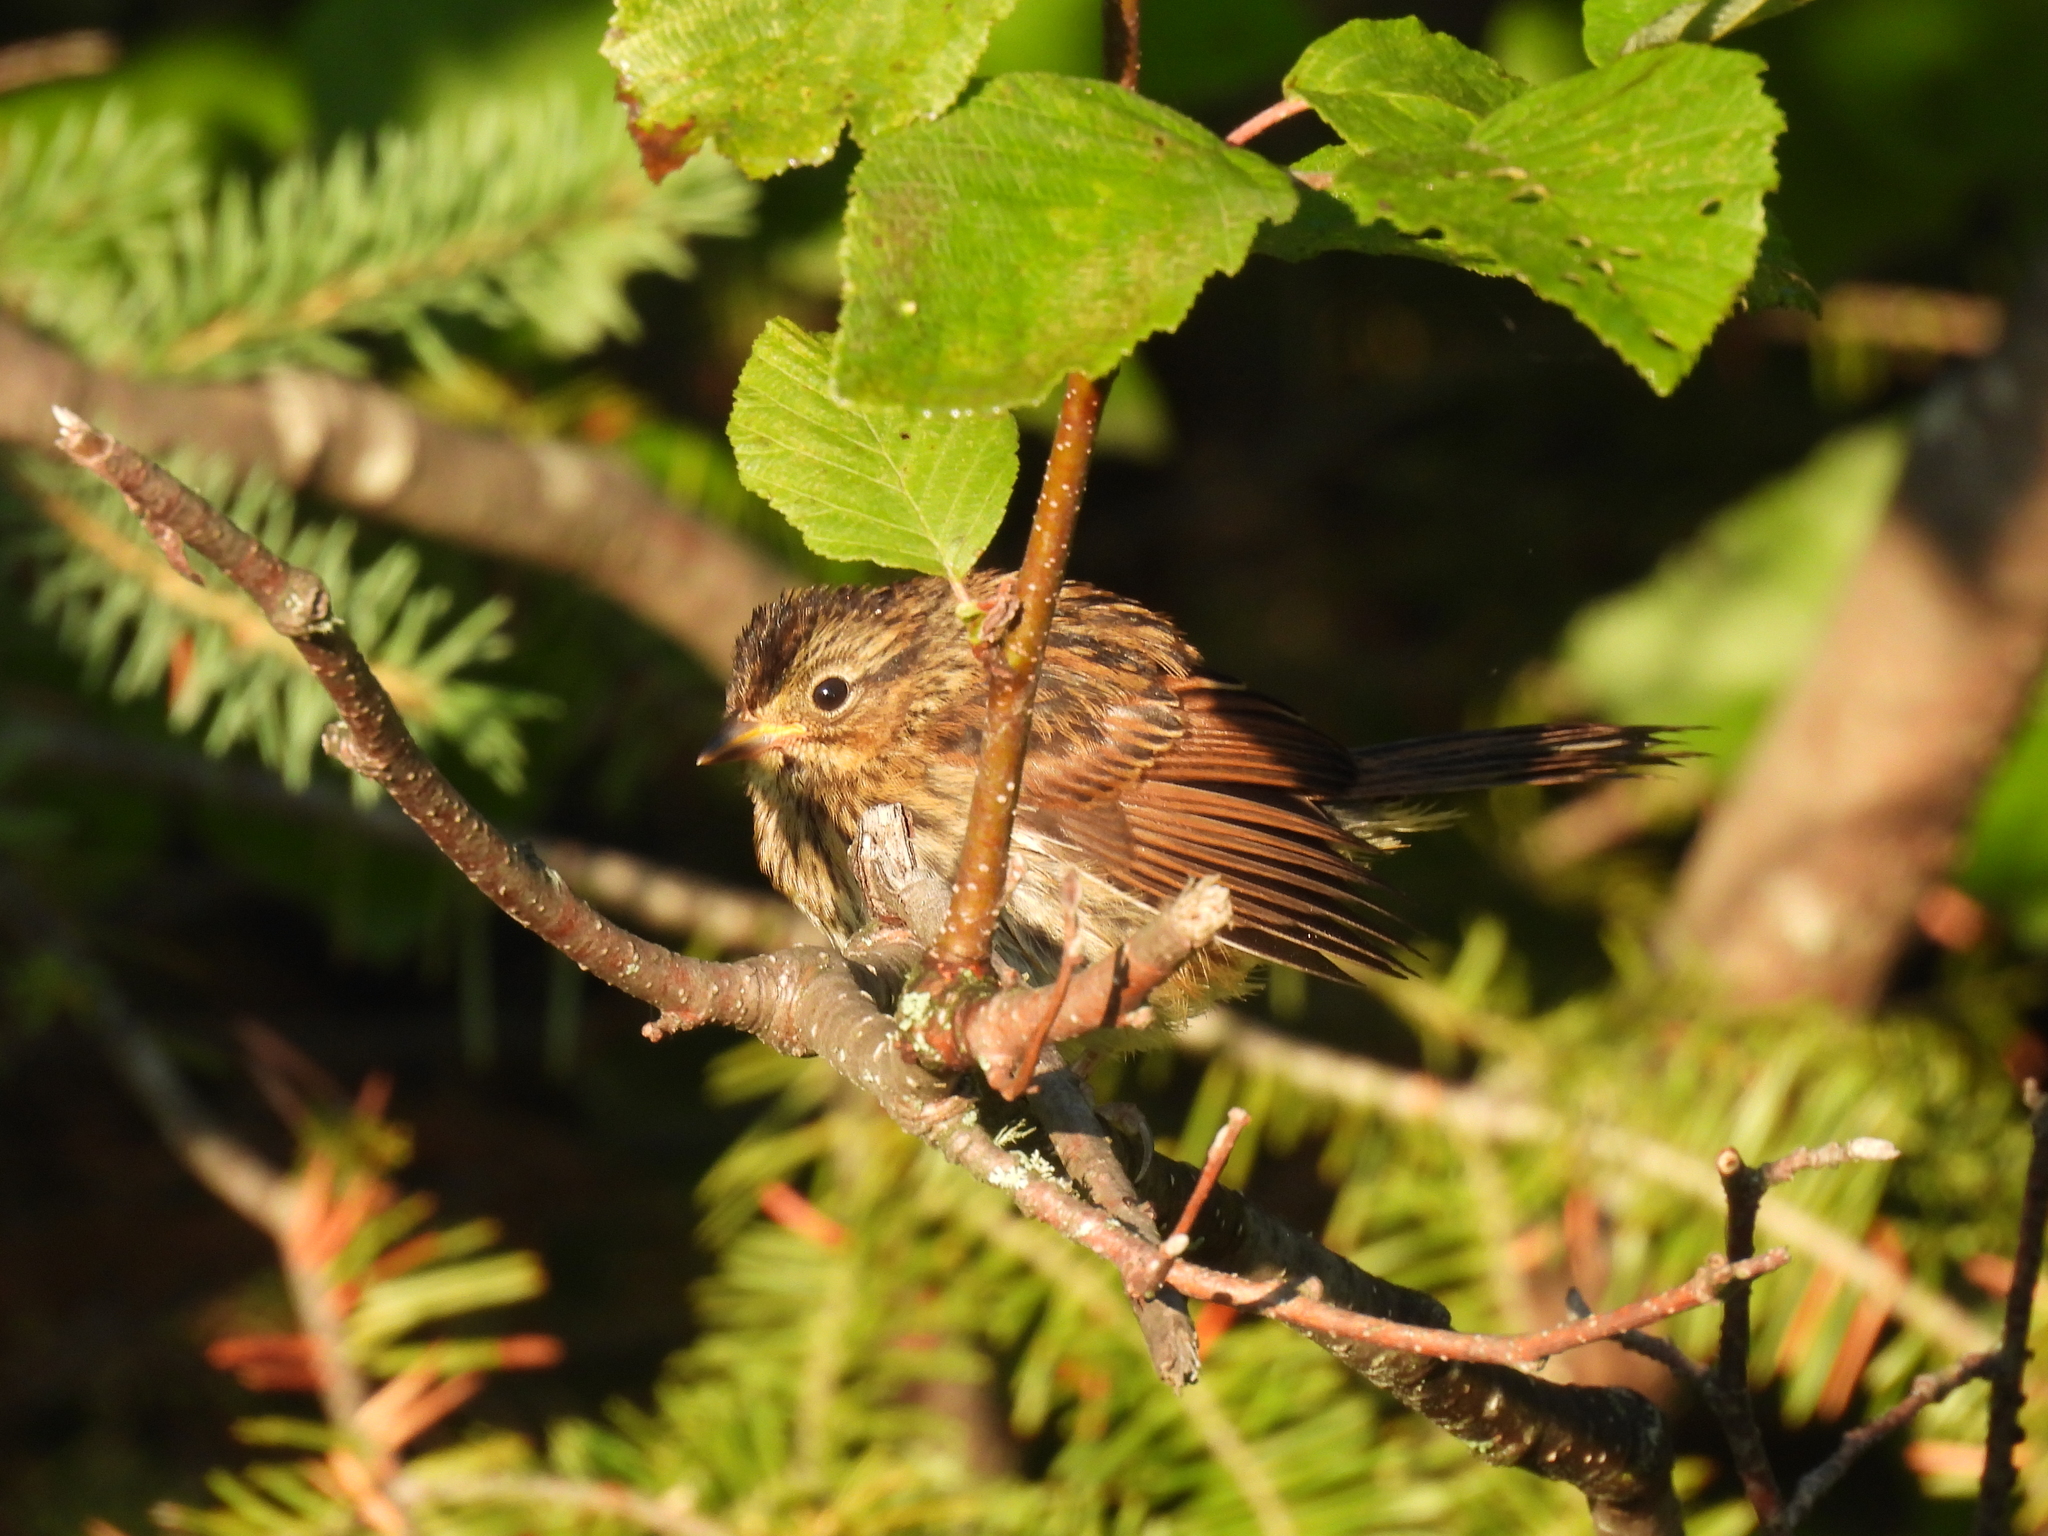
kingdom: Animalia
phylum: Chordata
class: Aves
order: Passeriformes
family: Passerellidae
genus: Melospiza
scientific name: Melospiza georgiana
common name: Swamp sparrow
